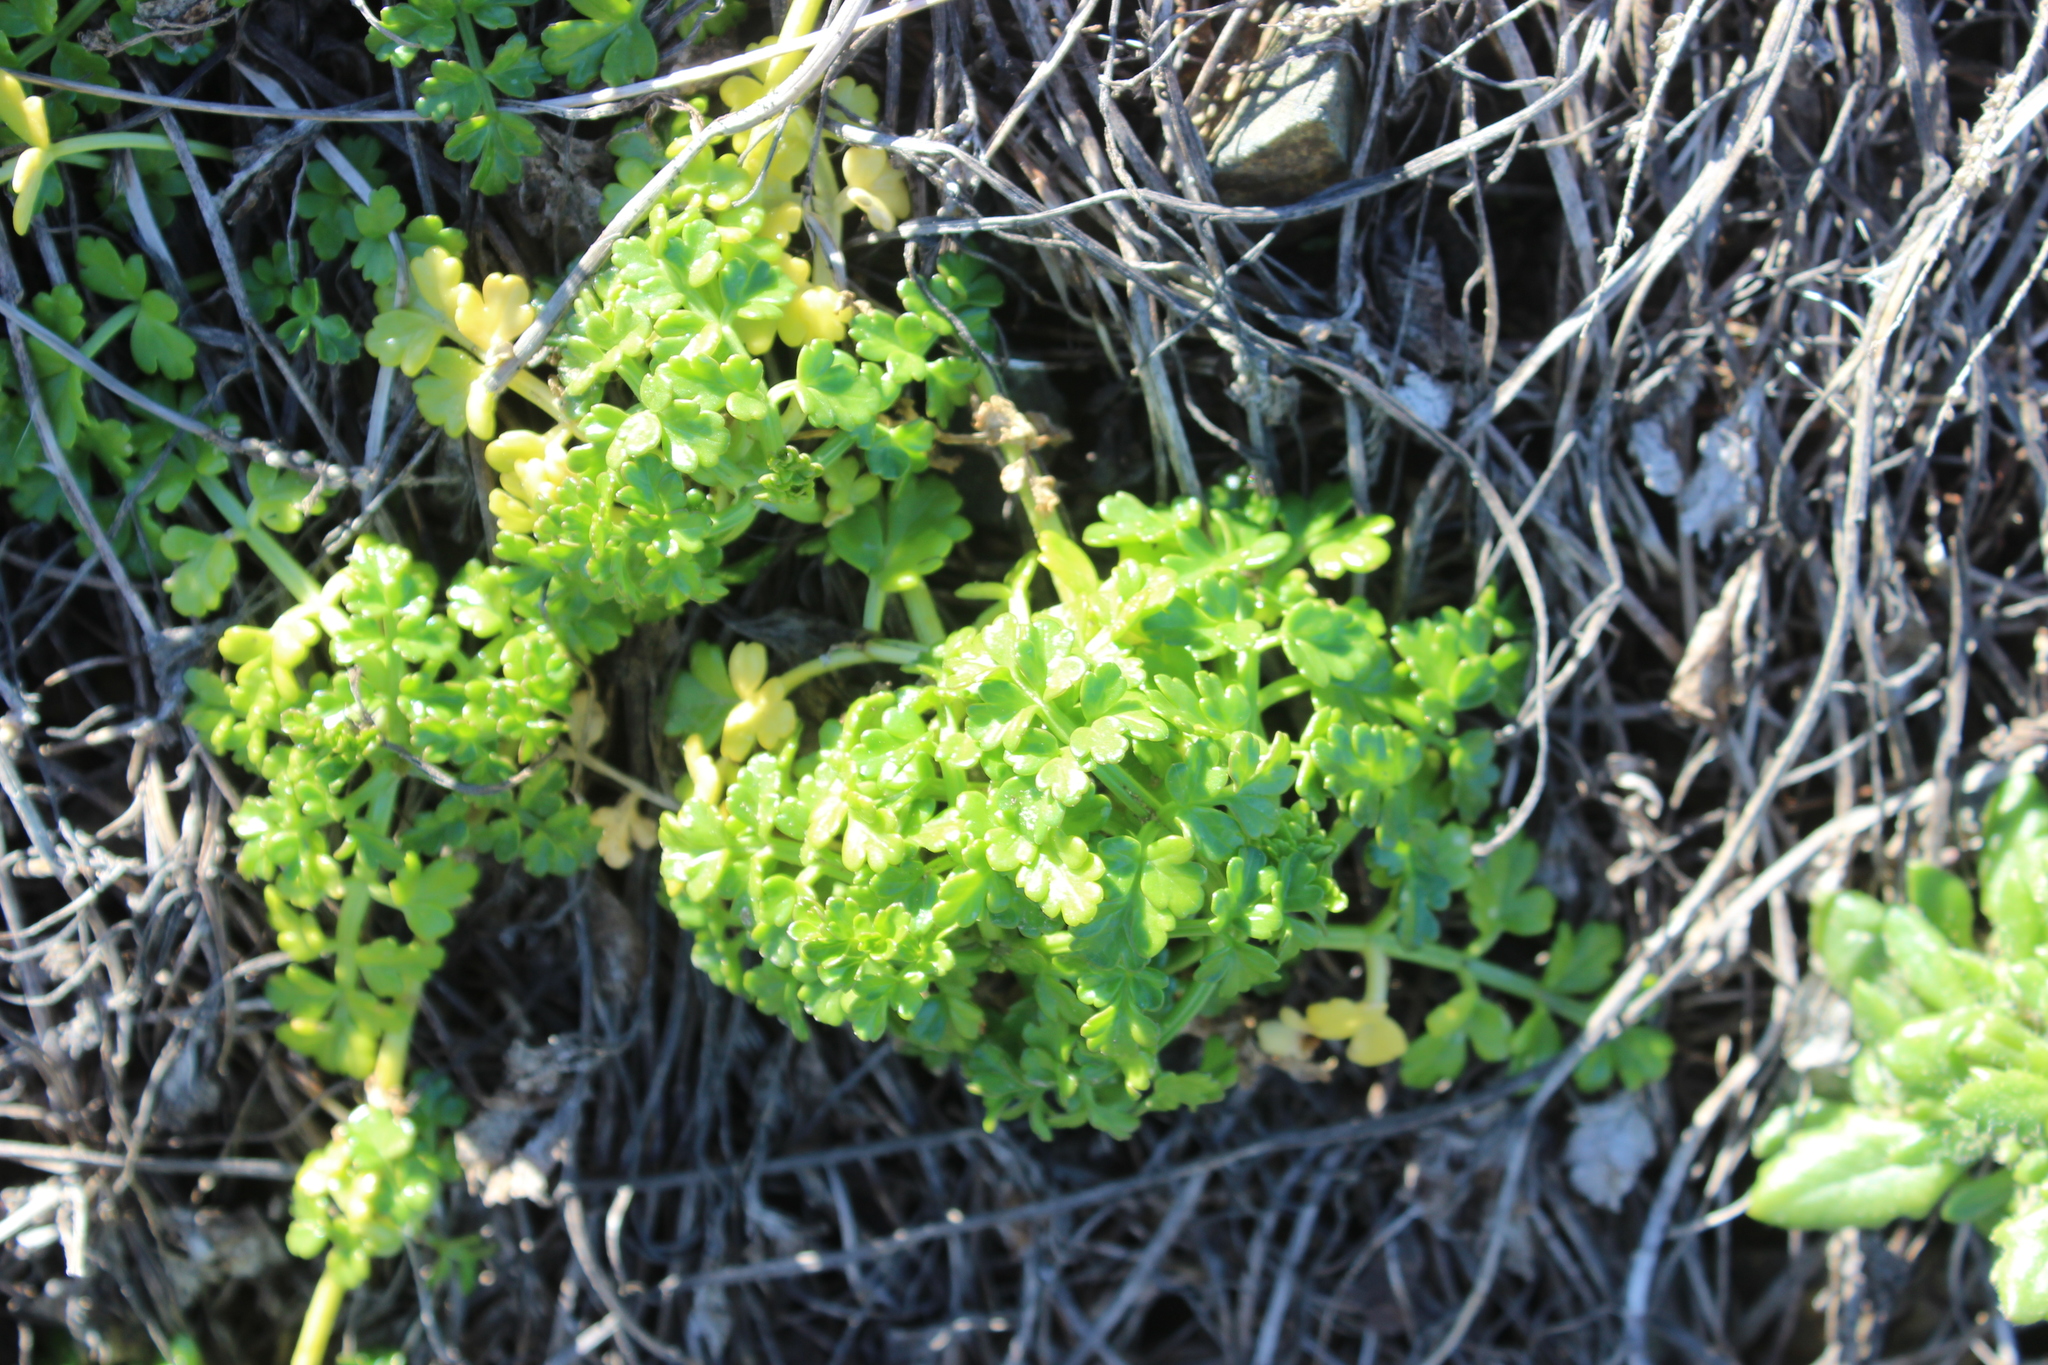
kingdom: Plantae
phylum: Tracheophyta
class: Magnoliopsida
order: Apiales
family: Apiaceae
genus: Apium
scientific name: Apium prostratum
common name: Prostrate marshwort
